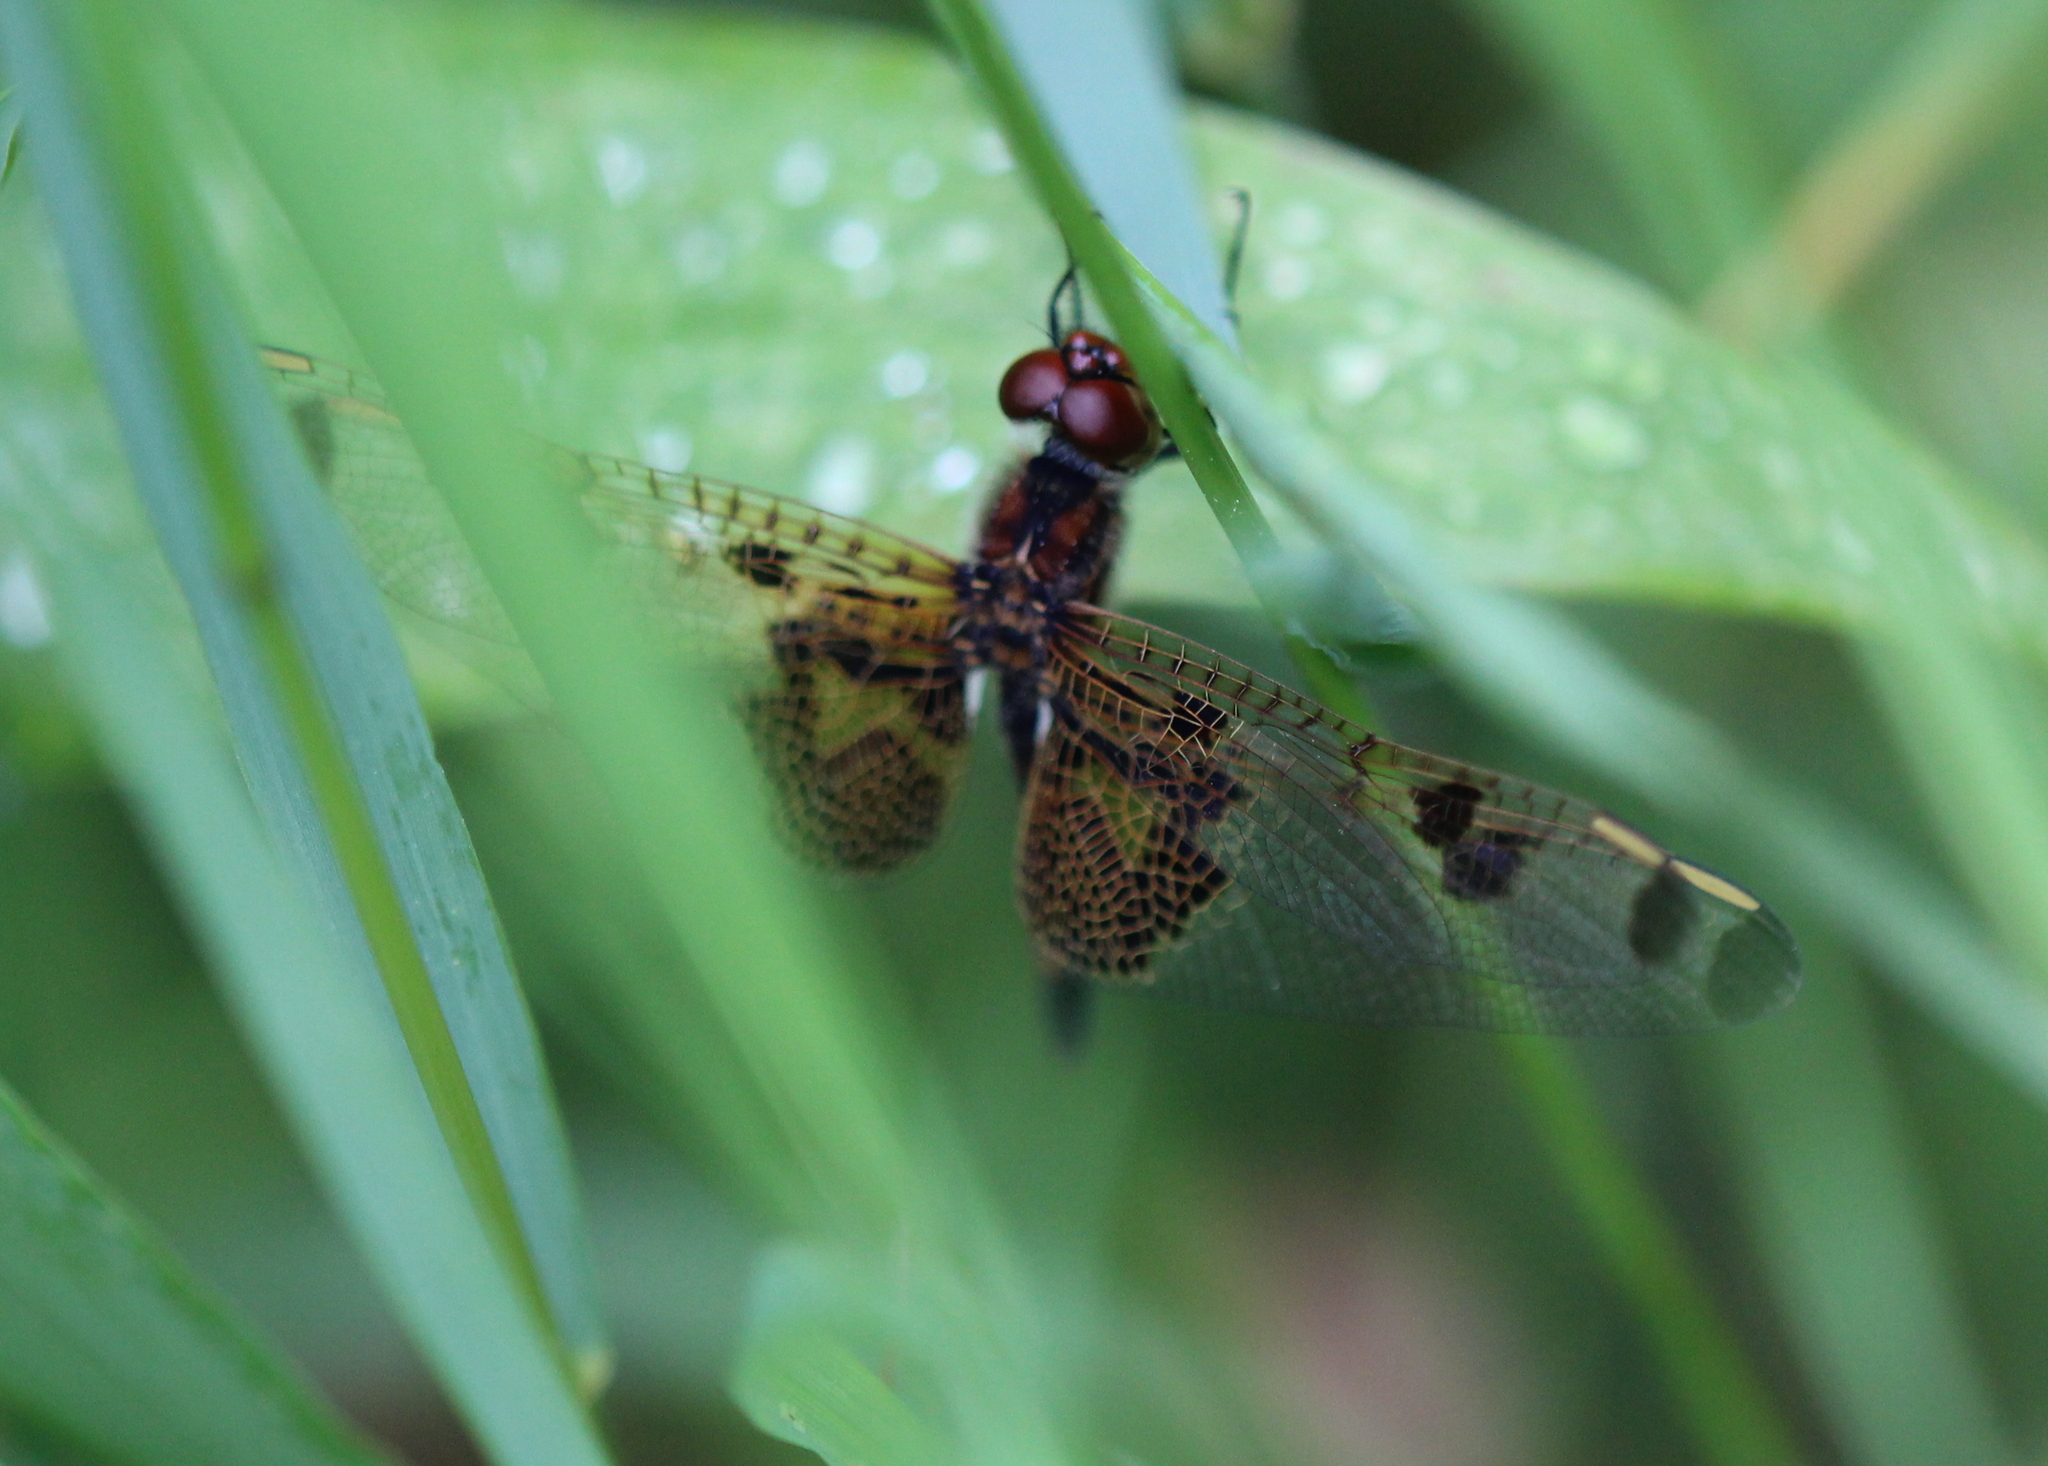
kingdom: Animalia
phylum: Arthropoda
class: Insecta
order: Odonata
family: Libellulidae
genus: Celithemis
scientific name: Celithemis elisa
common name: Calico pennant
